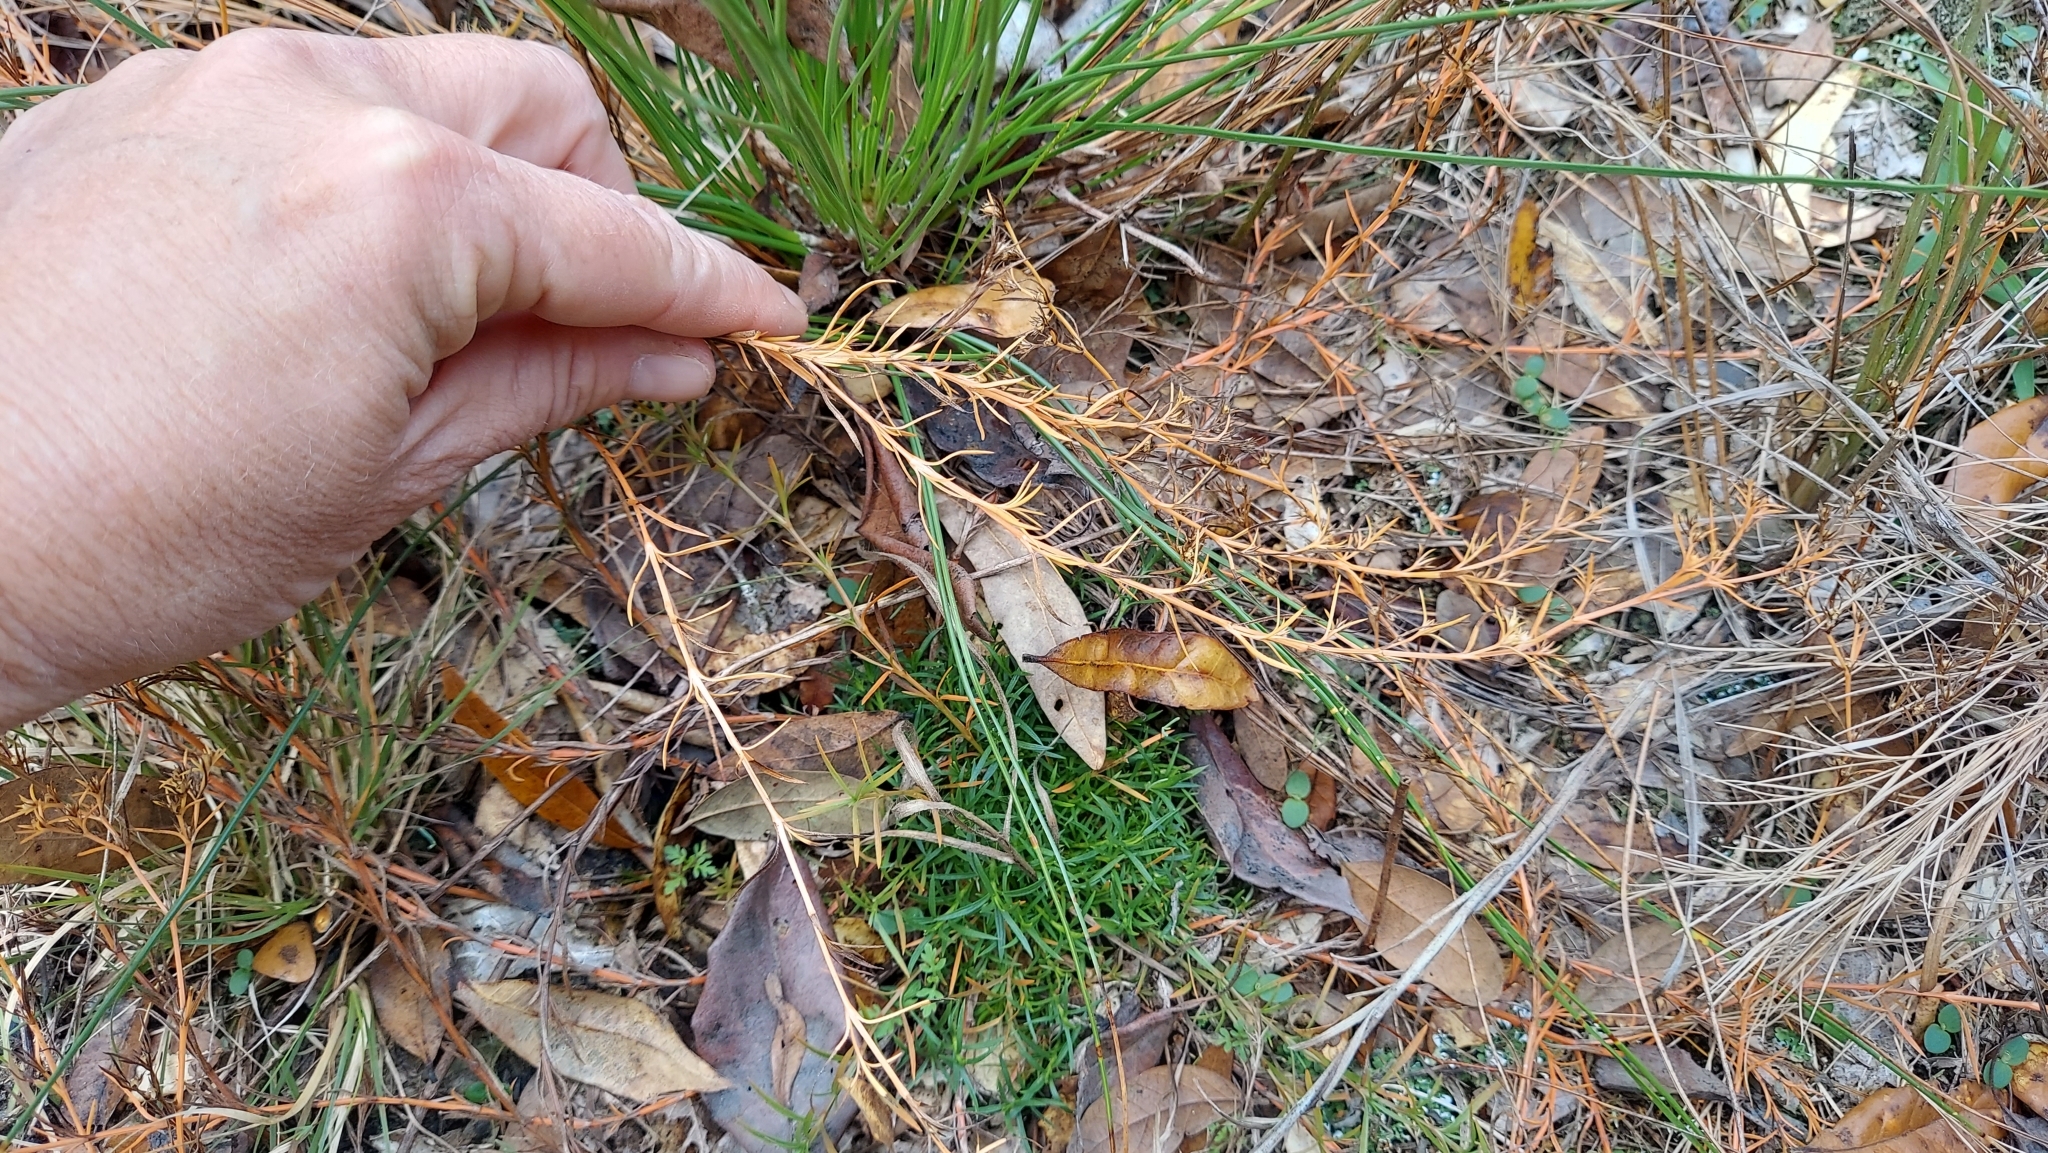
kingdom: Plantae
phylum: Tracheophyta
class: Magnoliopsida
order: Lamiales
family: Tetrachondraceae
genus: Polypremum
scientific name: Polypremum procumbens
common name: Juniper-leaf
